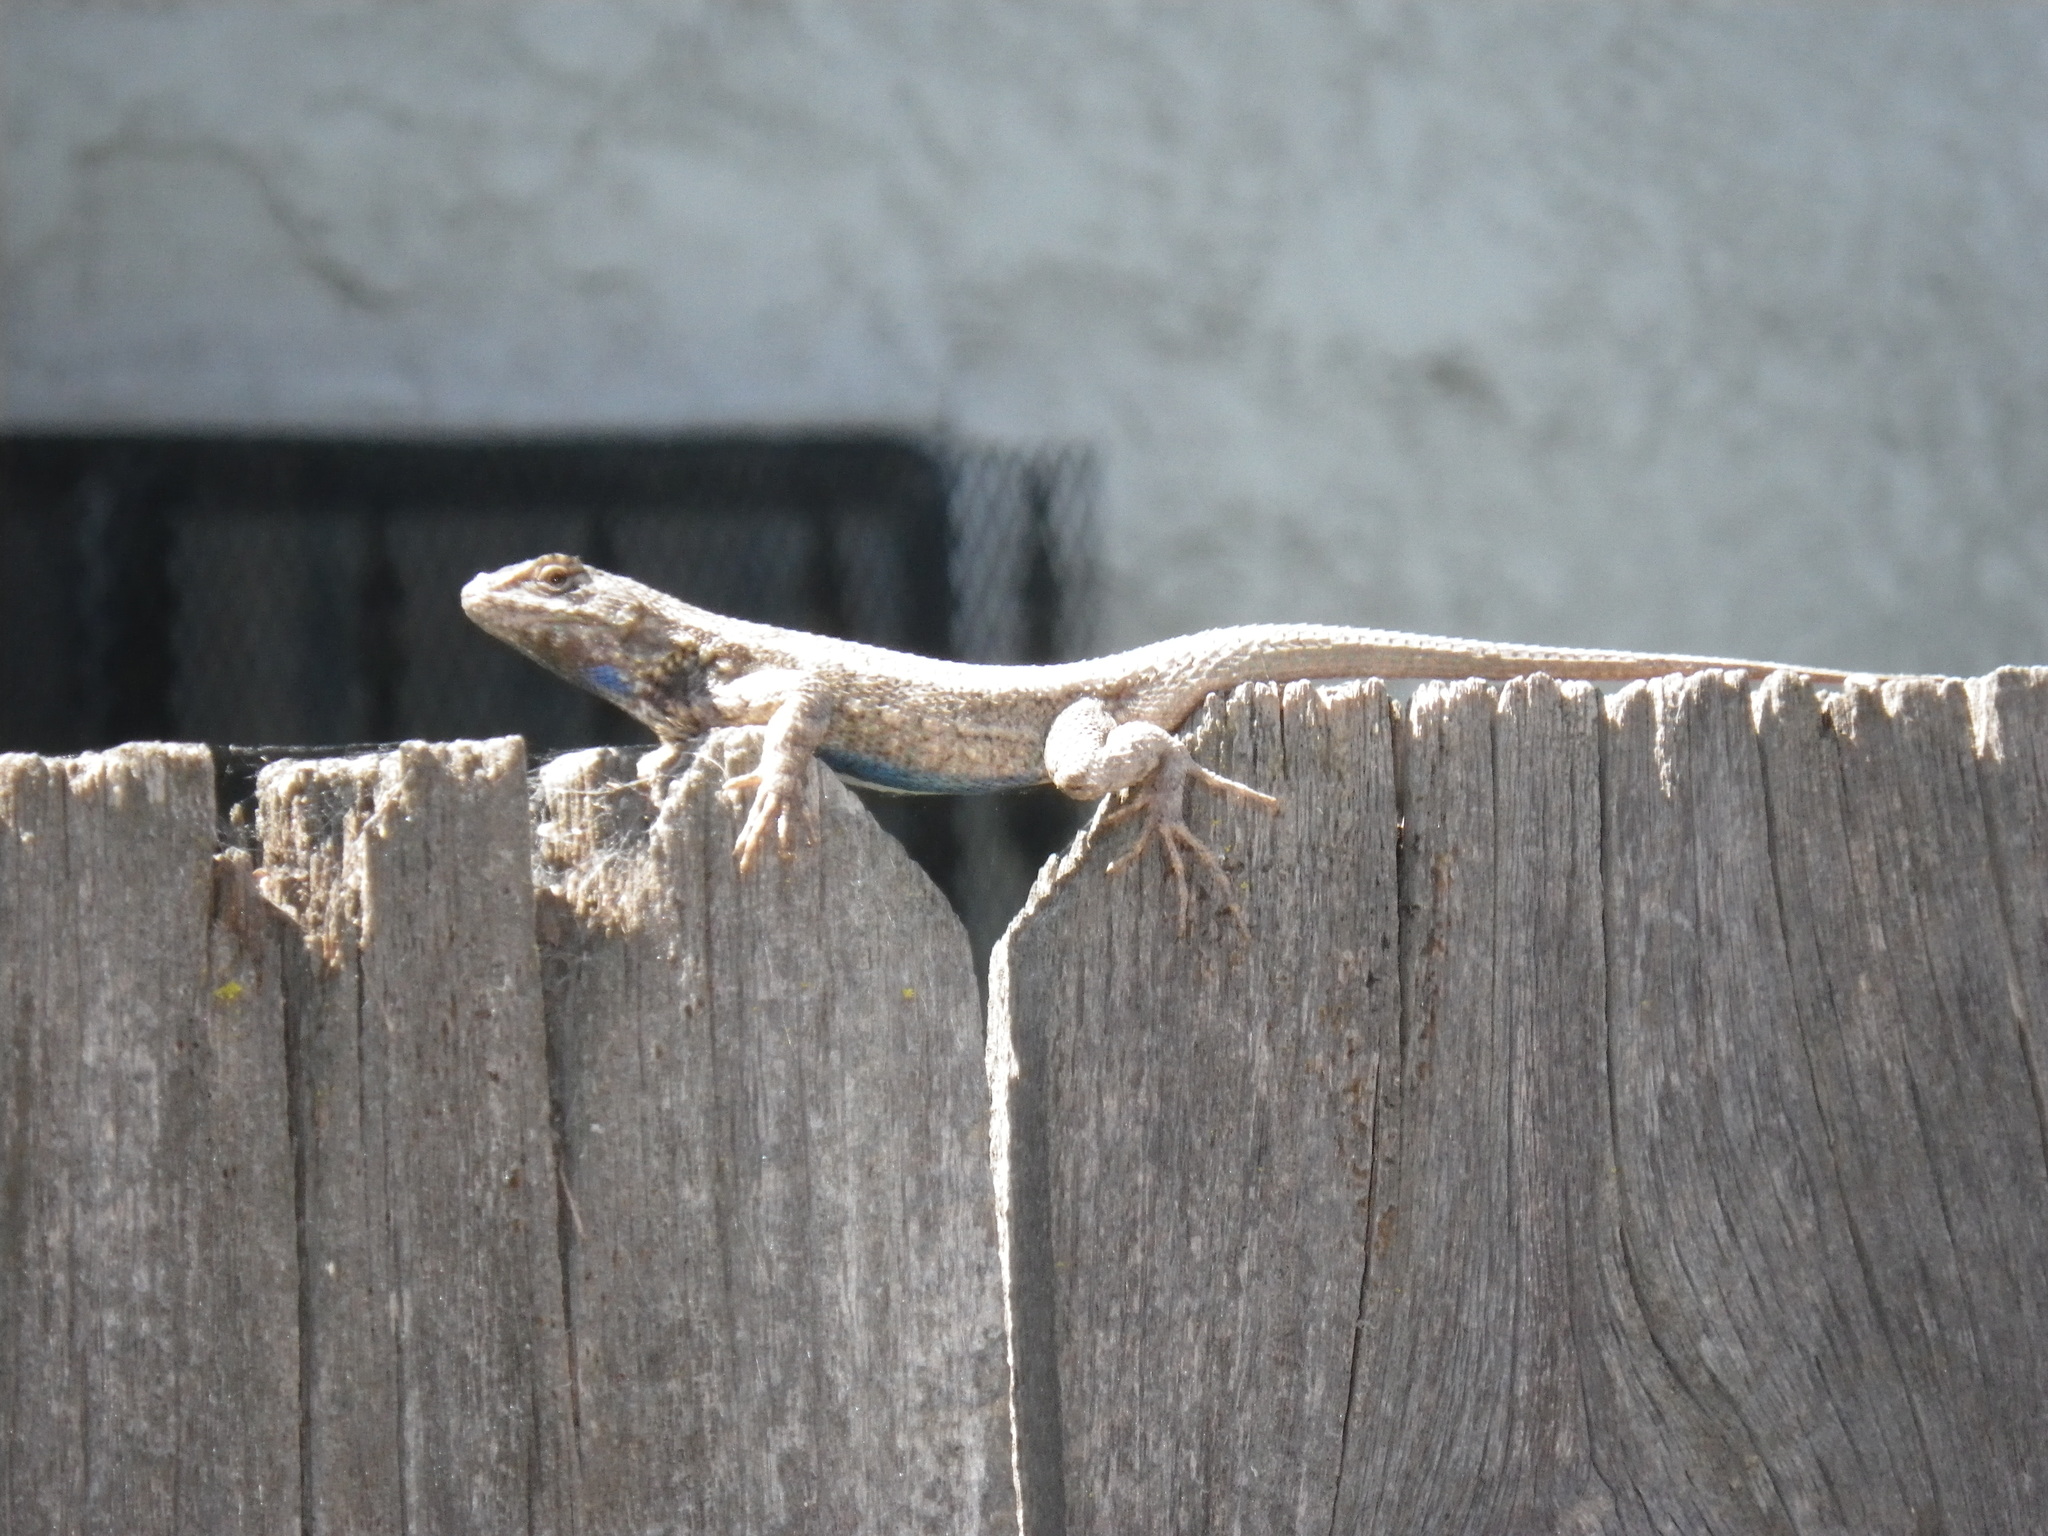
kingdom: Animalia
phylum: Chordata
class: Squamata
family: Phrynosomatidae
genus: Sceloporus
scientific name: Sceloporus occidentalis
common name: Western fence lizard
